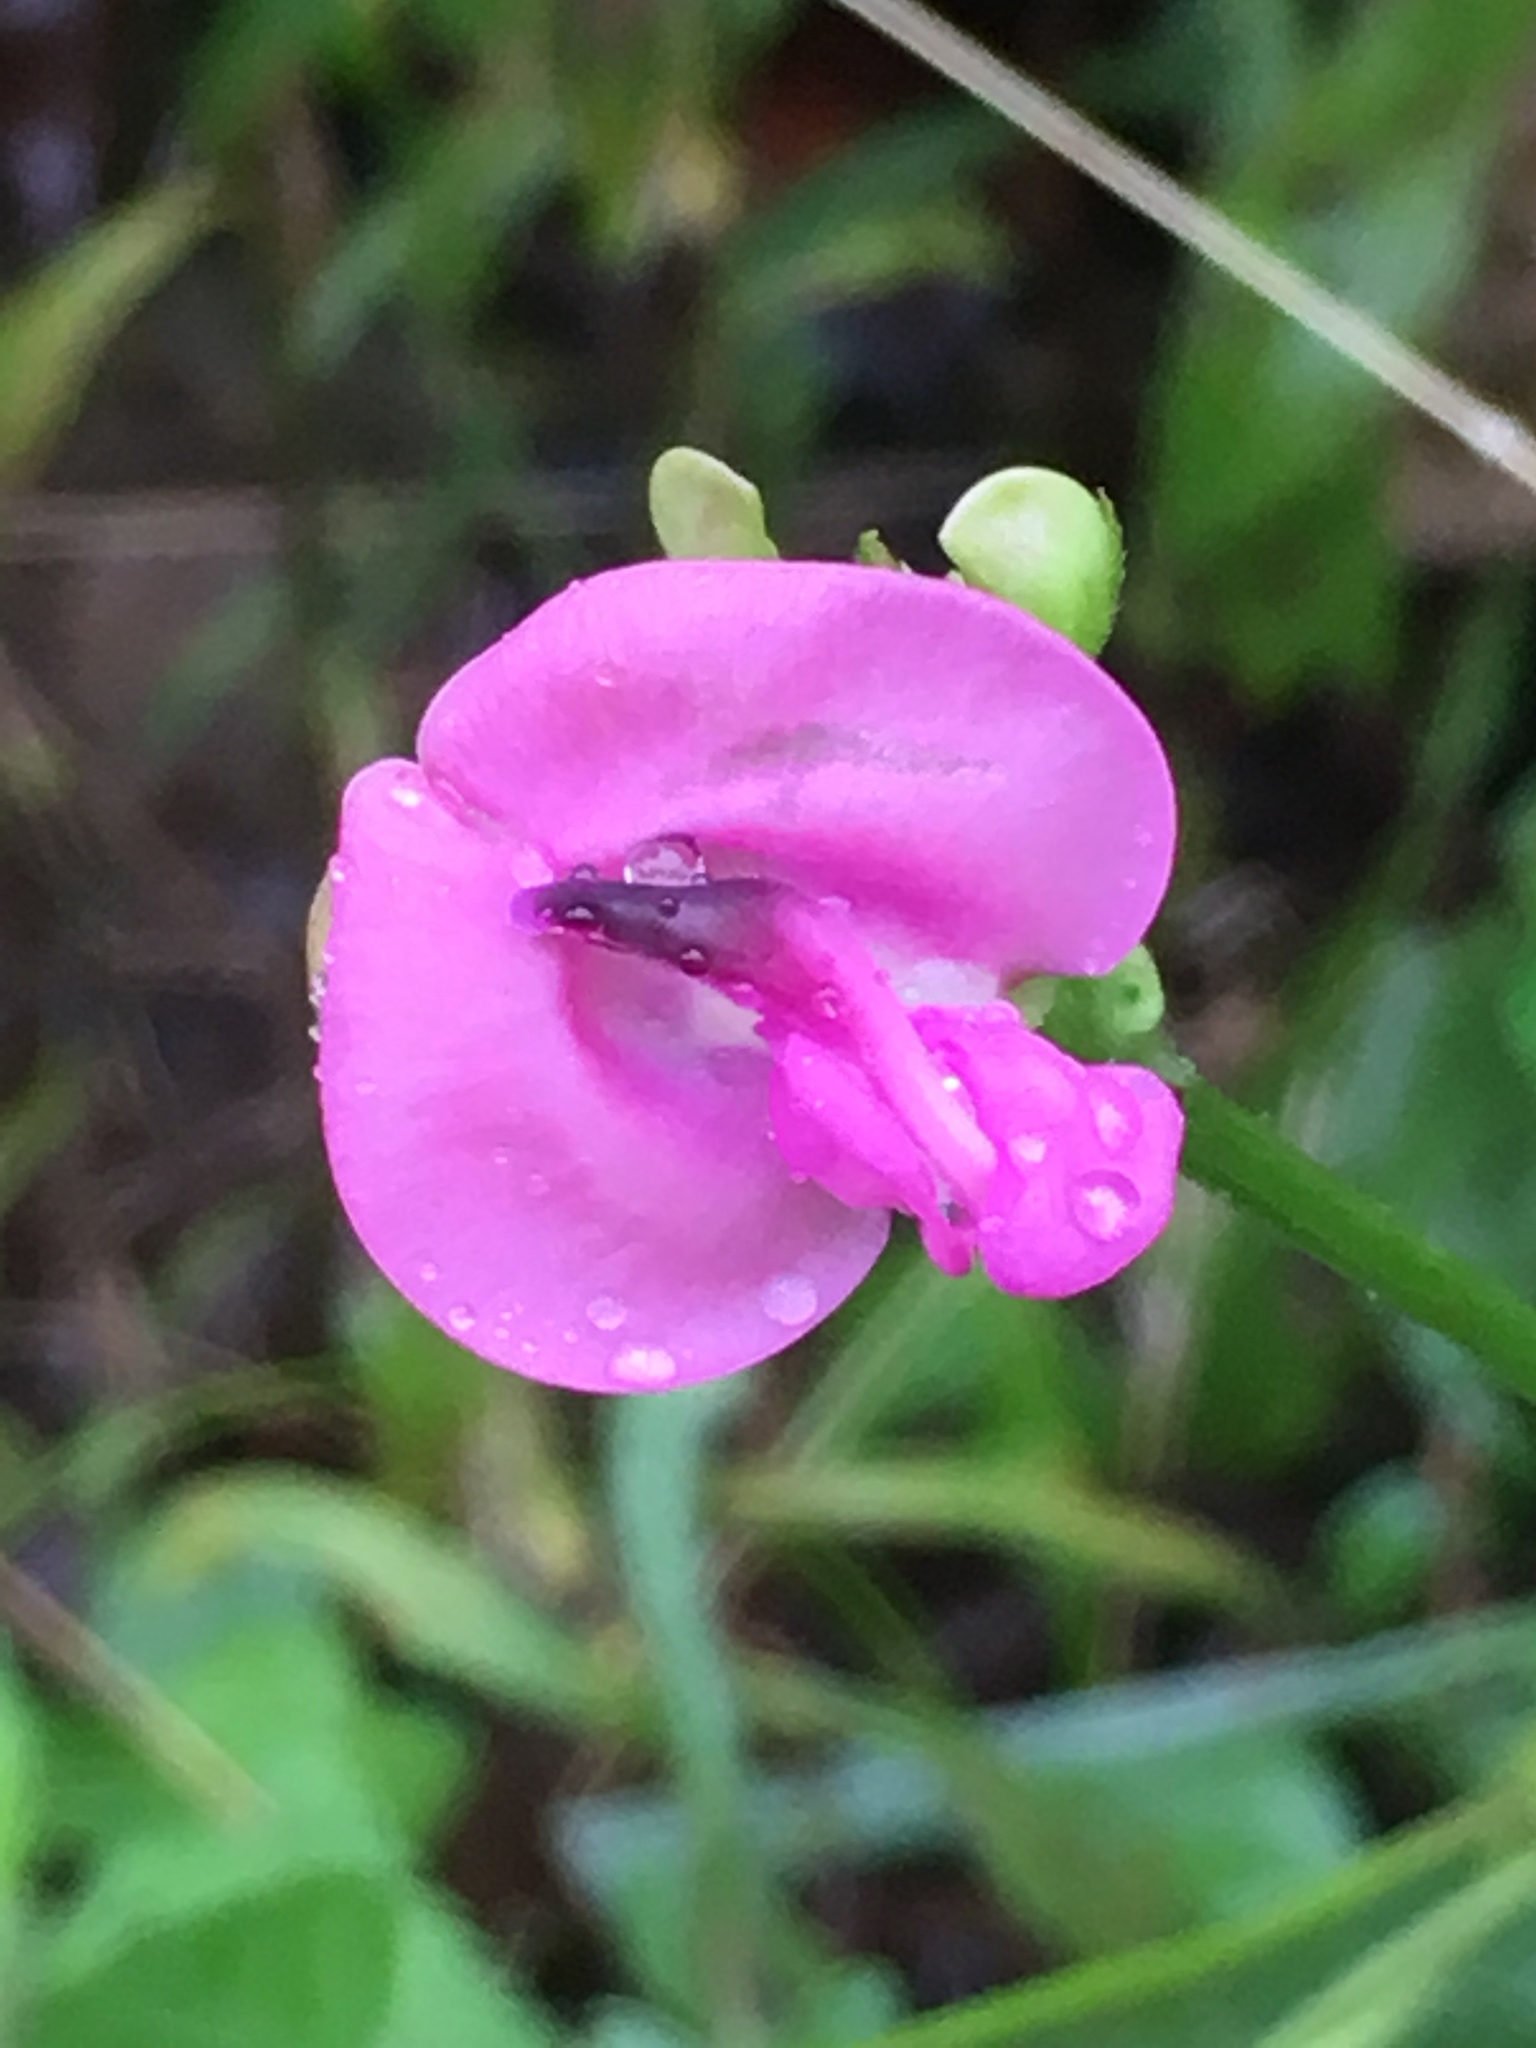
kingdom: Plantae
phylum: Tracheophyta
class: Magnoliopsida
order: Fabales
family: Fabaceae
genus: Strophostyles
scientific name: Strophostyles umbellata
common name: Perennial wild bean
